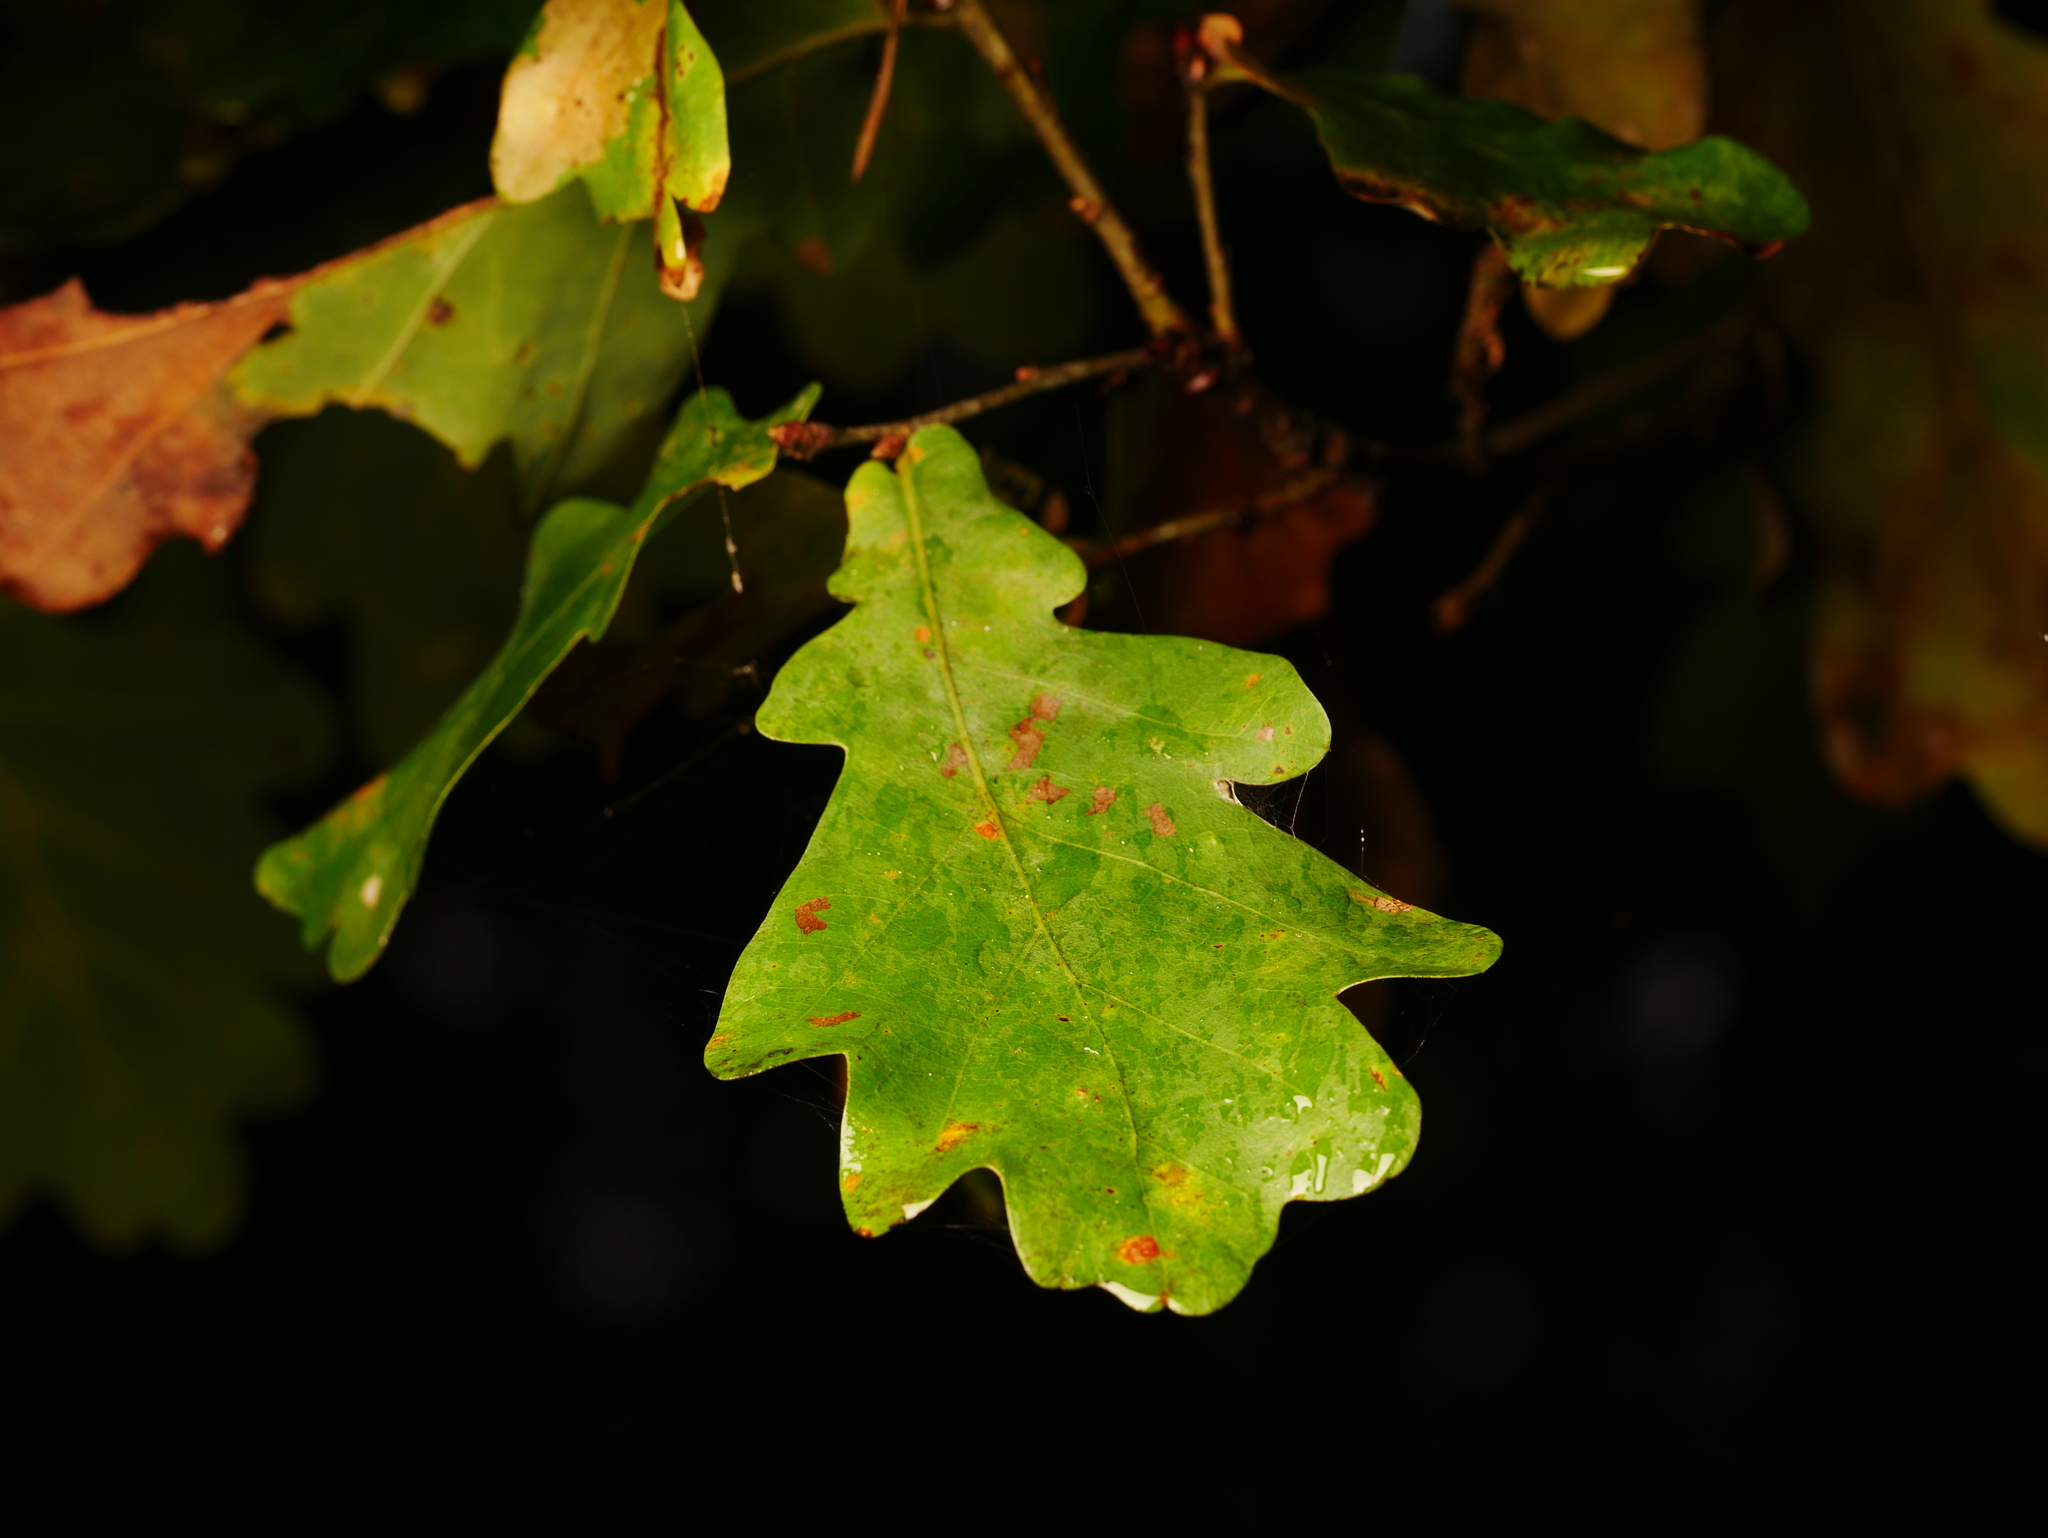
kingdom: Plantae
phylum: Tracheophyta
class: Magnoliopsida
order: Fagales
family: Fagaceae
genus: Quercus
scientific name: Quercus robur
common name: Pedunculate oak
